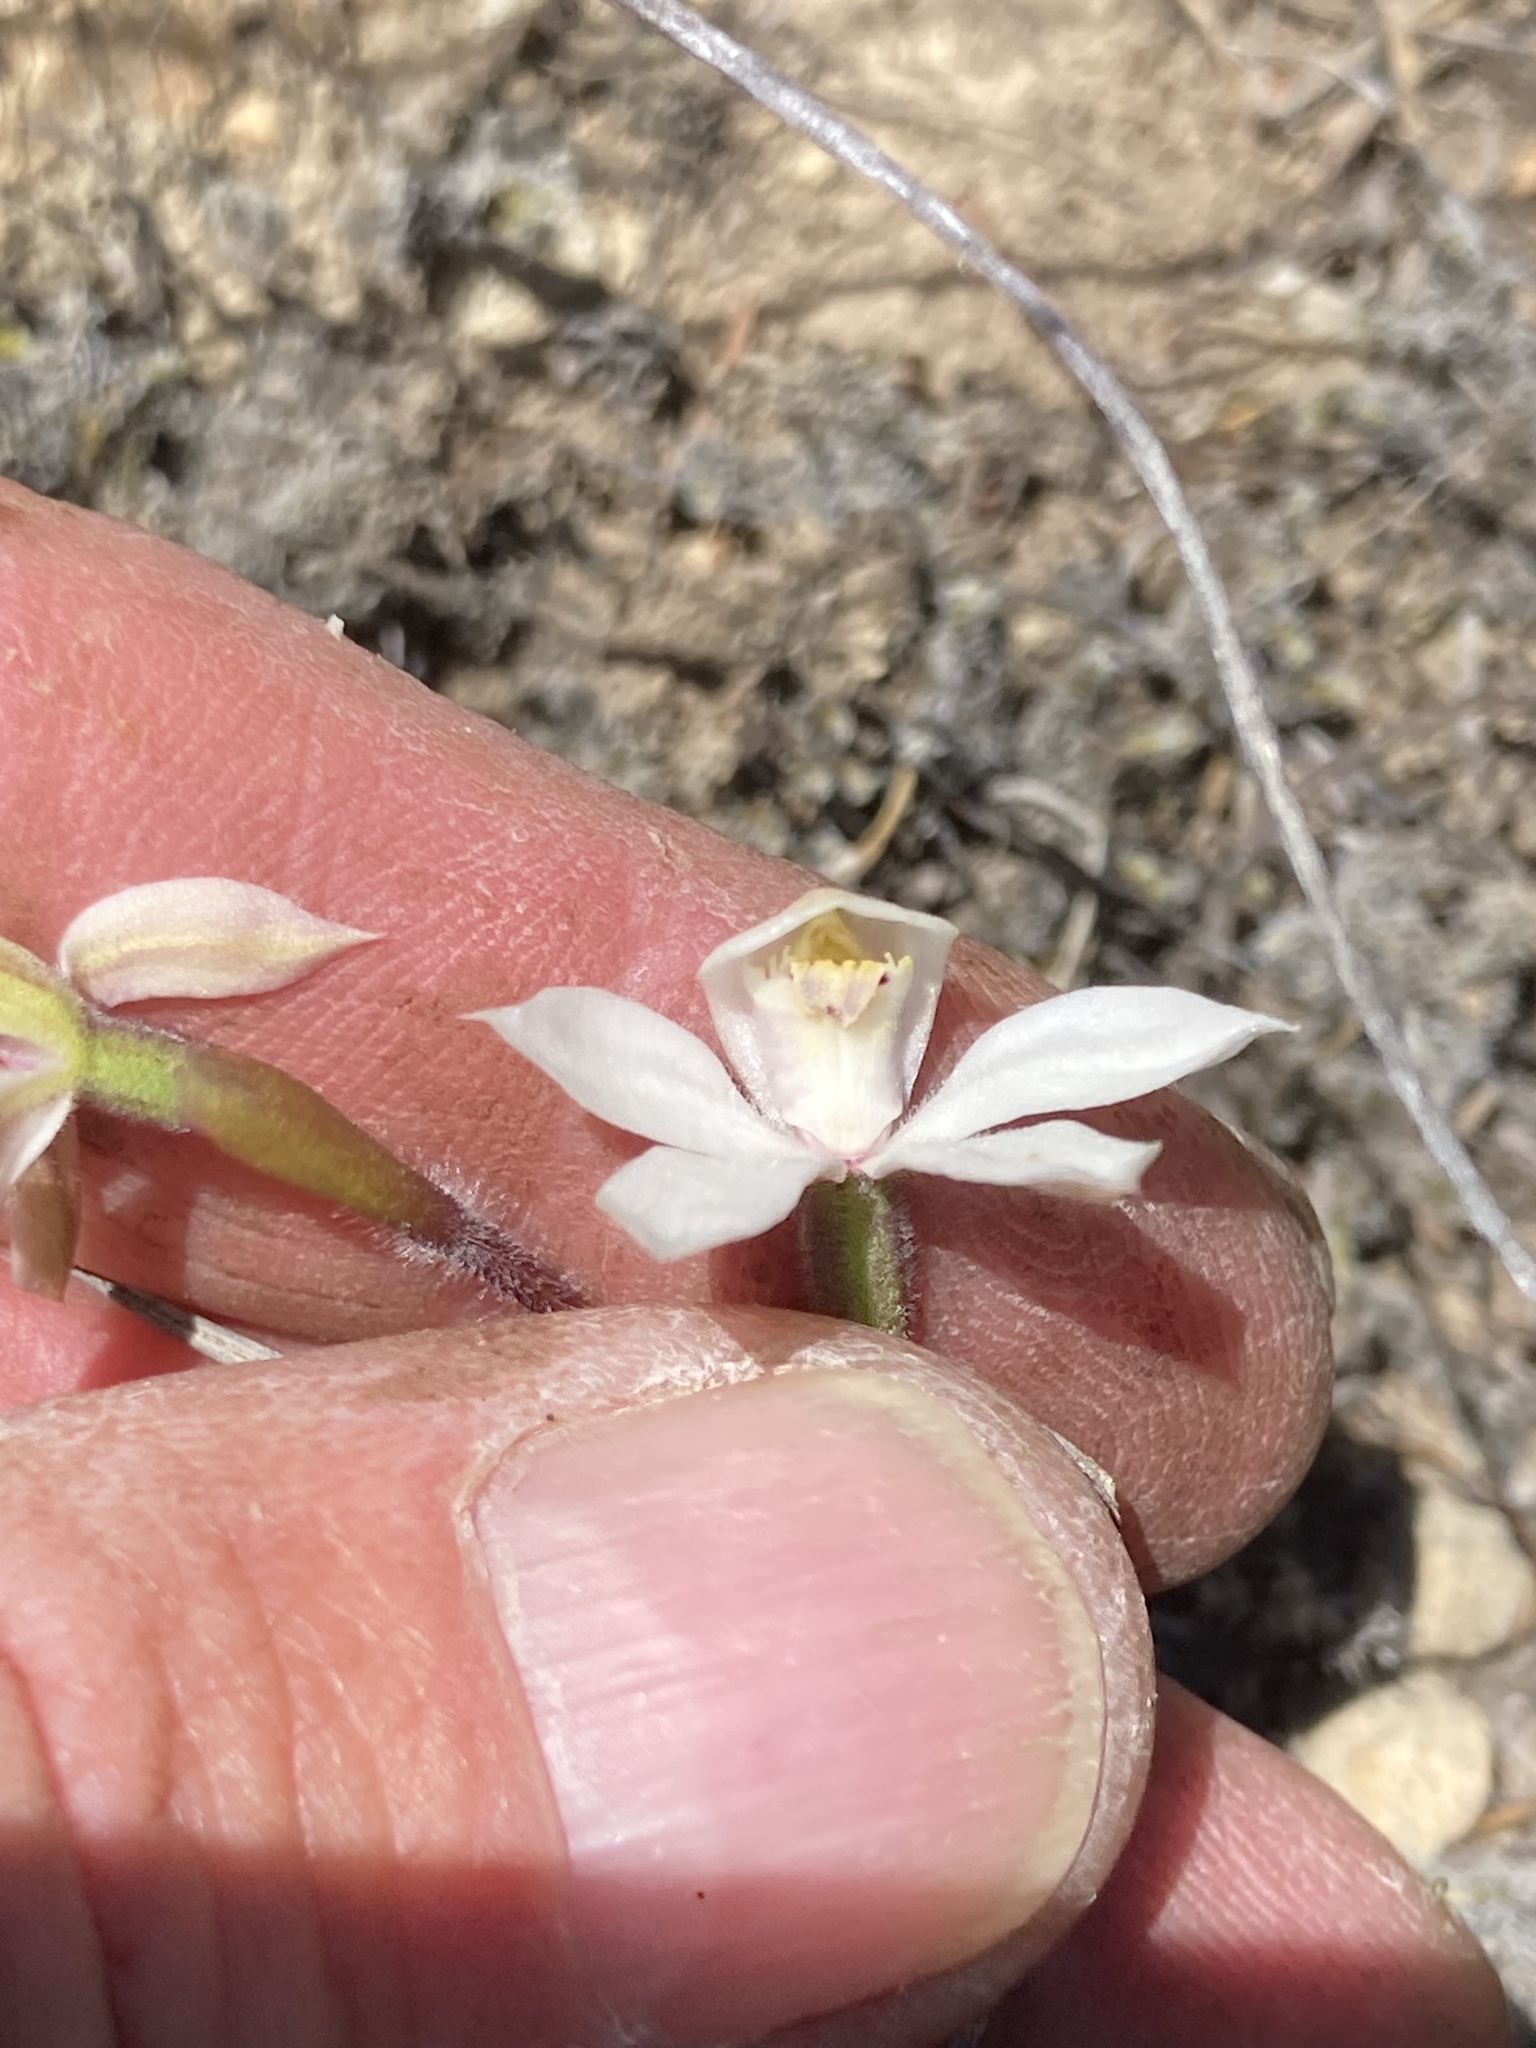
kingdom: Plantae
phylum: Tracheophyta
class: Liliopsida
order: Asparagales
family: Orchidaceae
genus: Caladenia
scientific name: Caladenia lyallii
